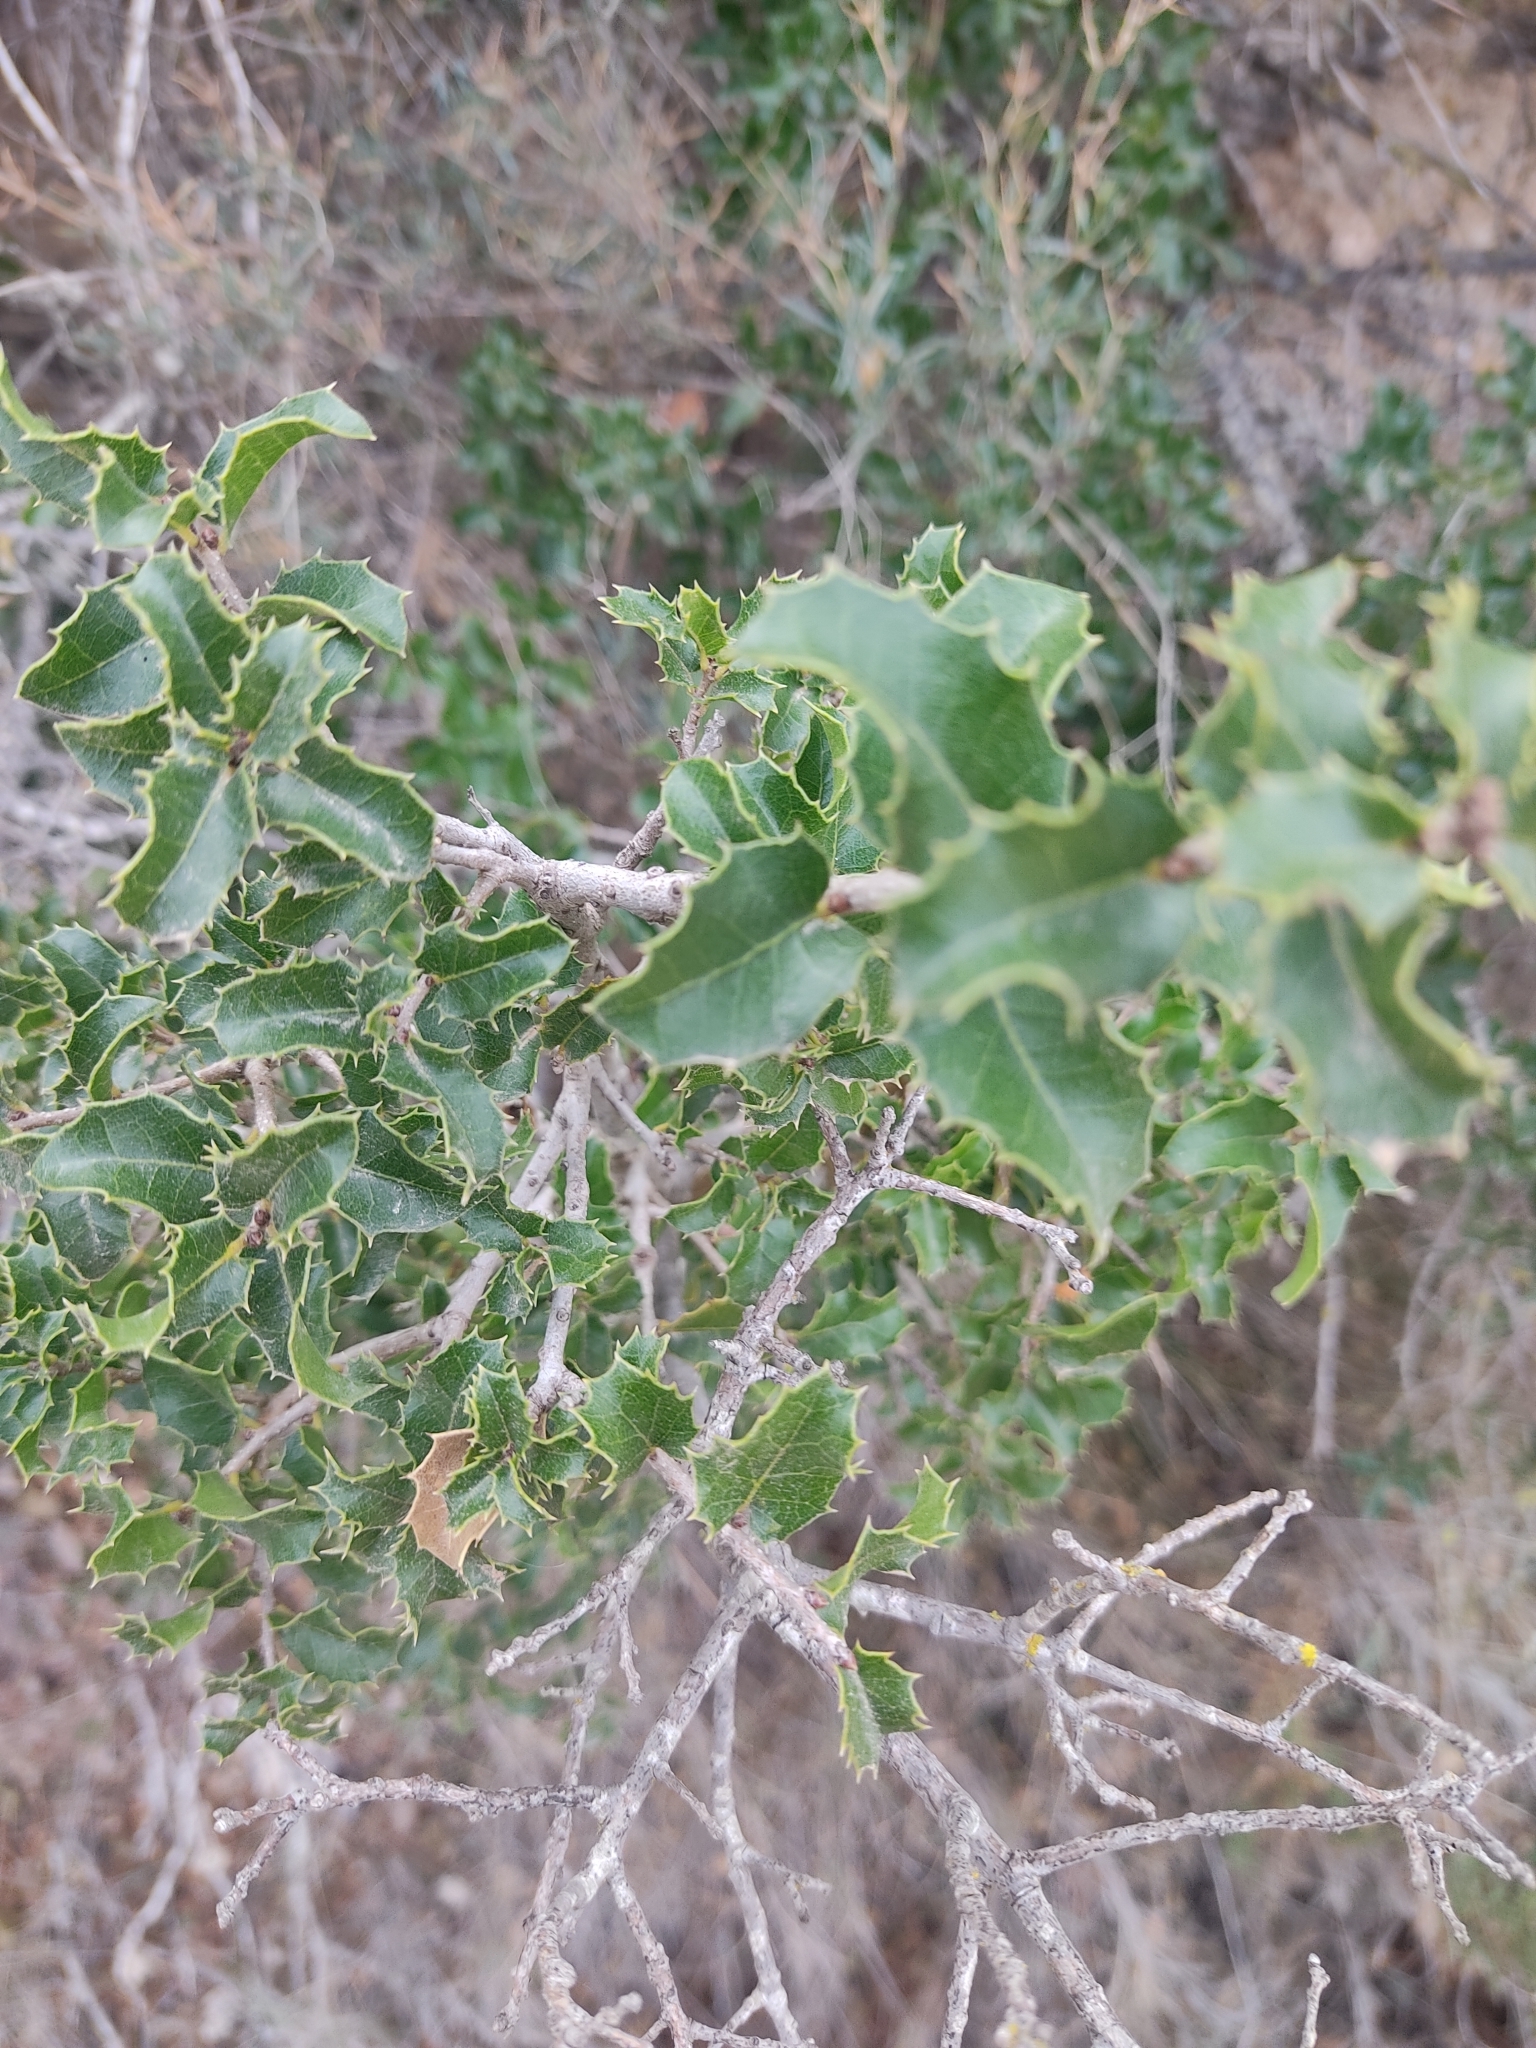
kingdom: Plantae
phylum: Tracheophyta
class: Magnoliopsida
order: Fagales
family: Fagaceae
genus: Quercus
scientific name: Quercus coccifera
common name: Kermes oak
